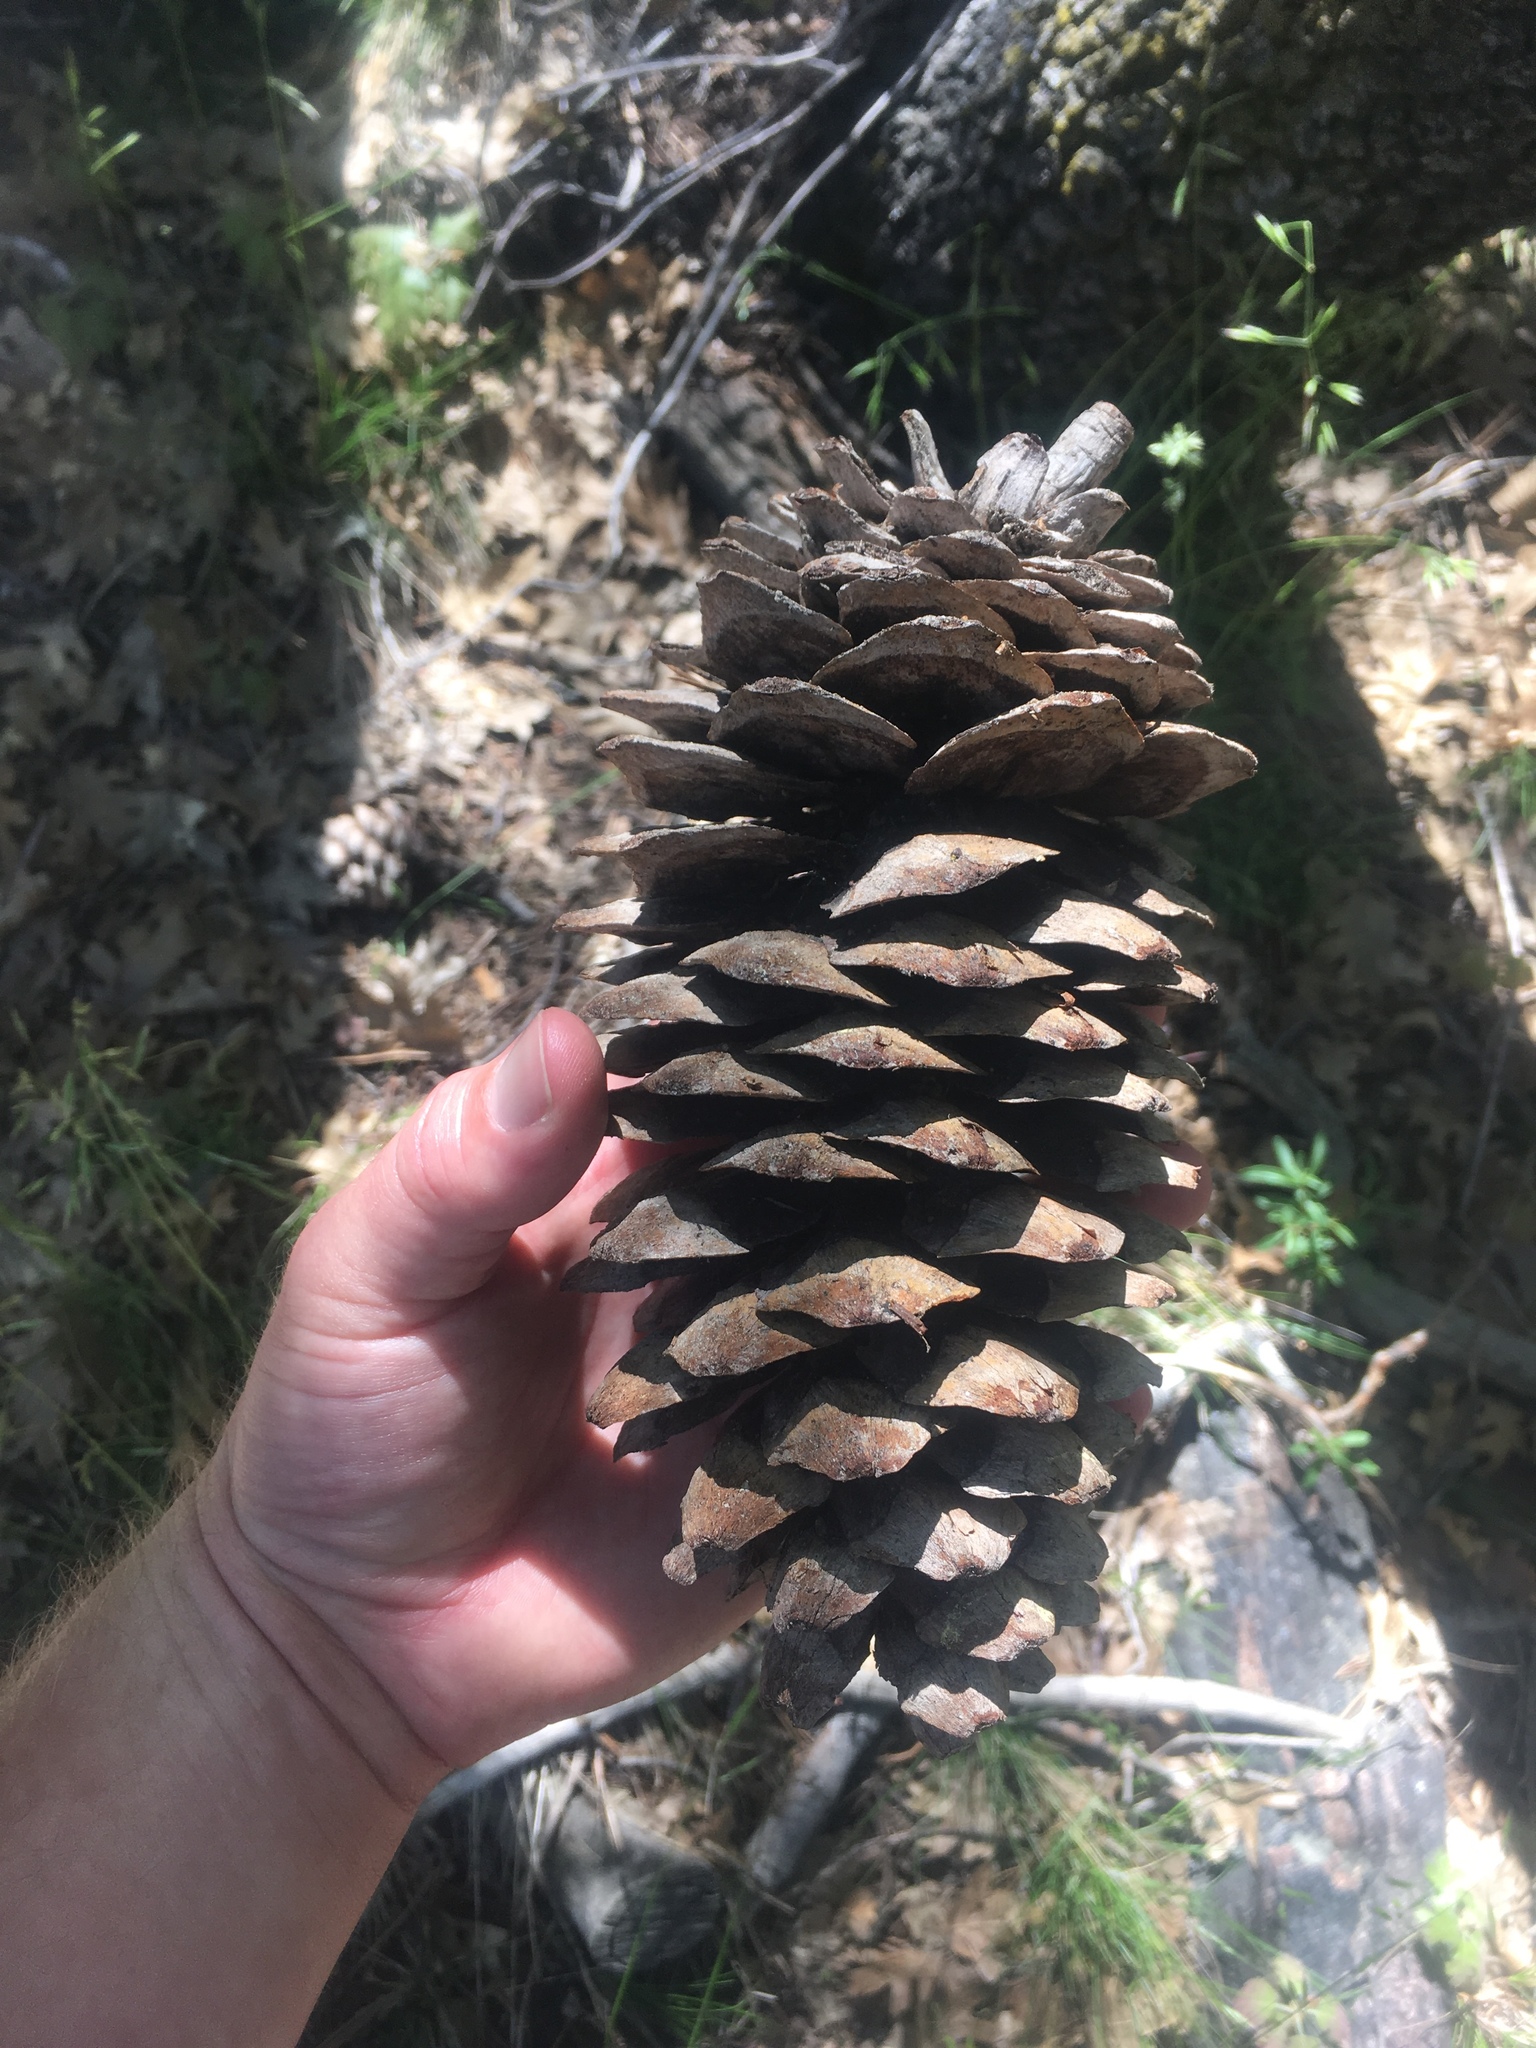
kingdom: Plantae
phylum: Tracheophyta
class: Pinopsida
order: Pinales
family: Pinaceae
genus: Pinus
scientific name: Pinus lambertiana
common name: Sugar pine
